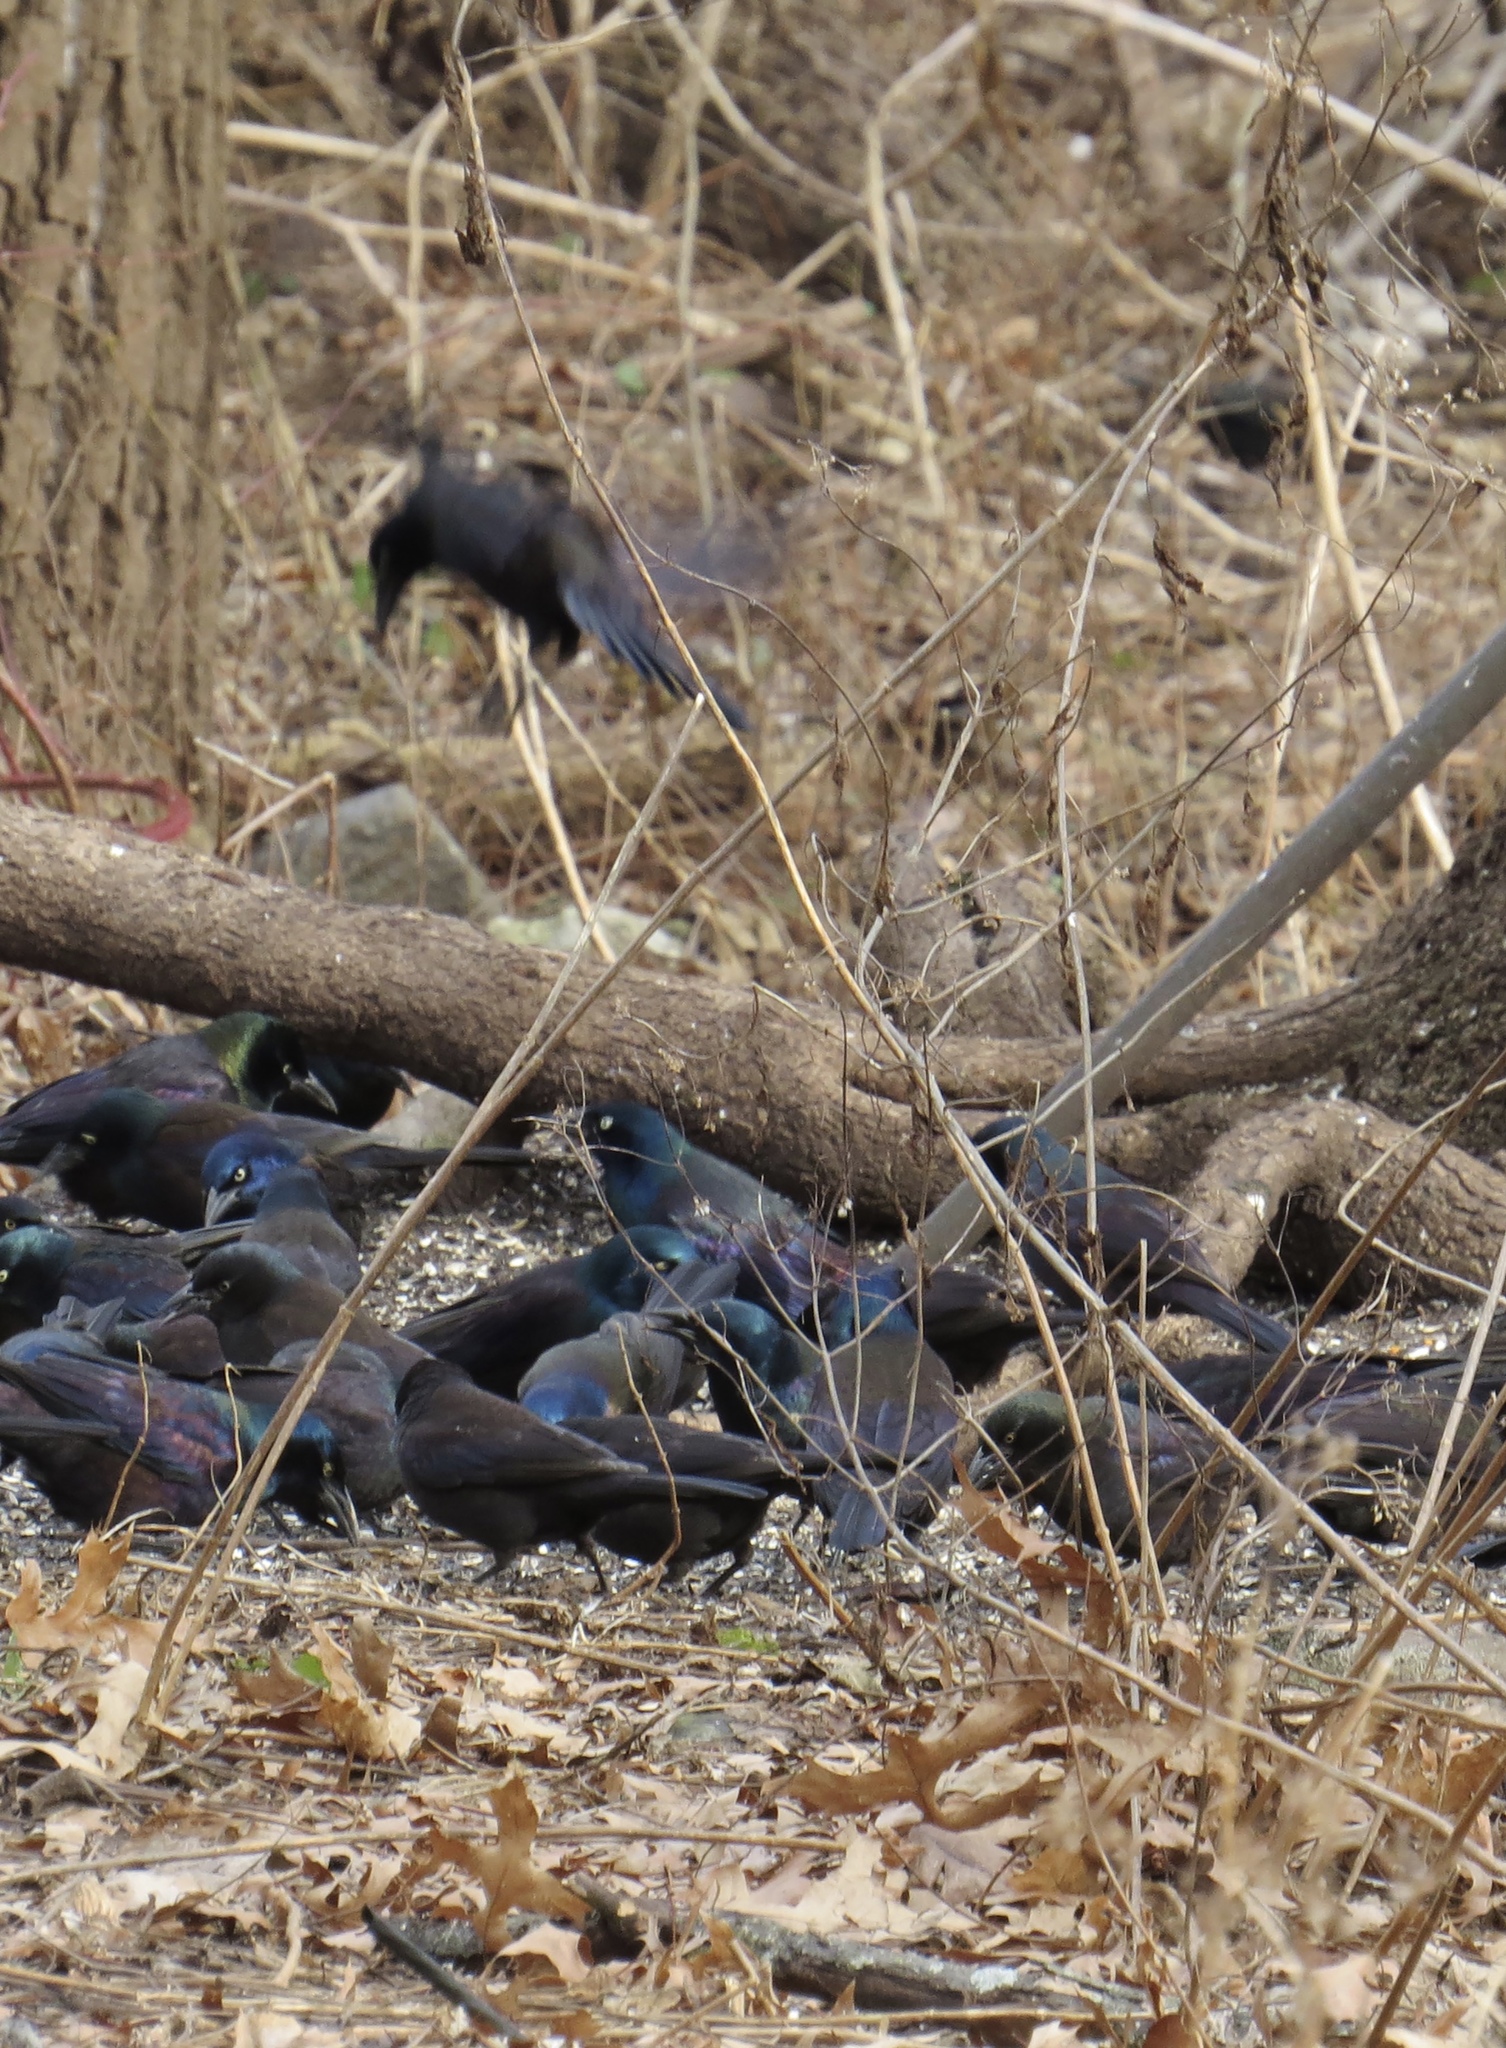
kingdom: Animalia
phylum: Chordata
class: Aves
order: Passeriformes
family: Icteridae
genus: Quiscalus
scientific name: Quiscalus quiscula
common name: Common grackle
